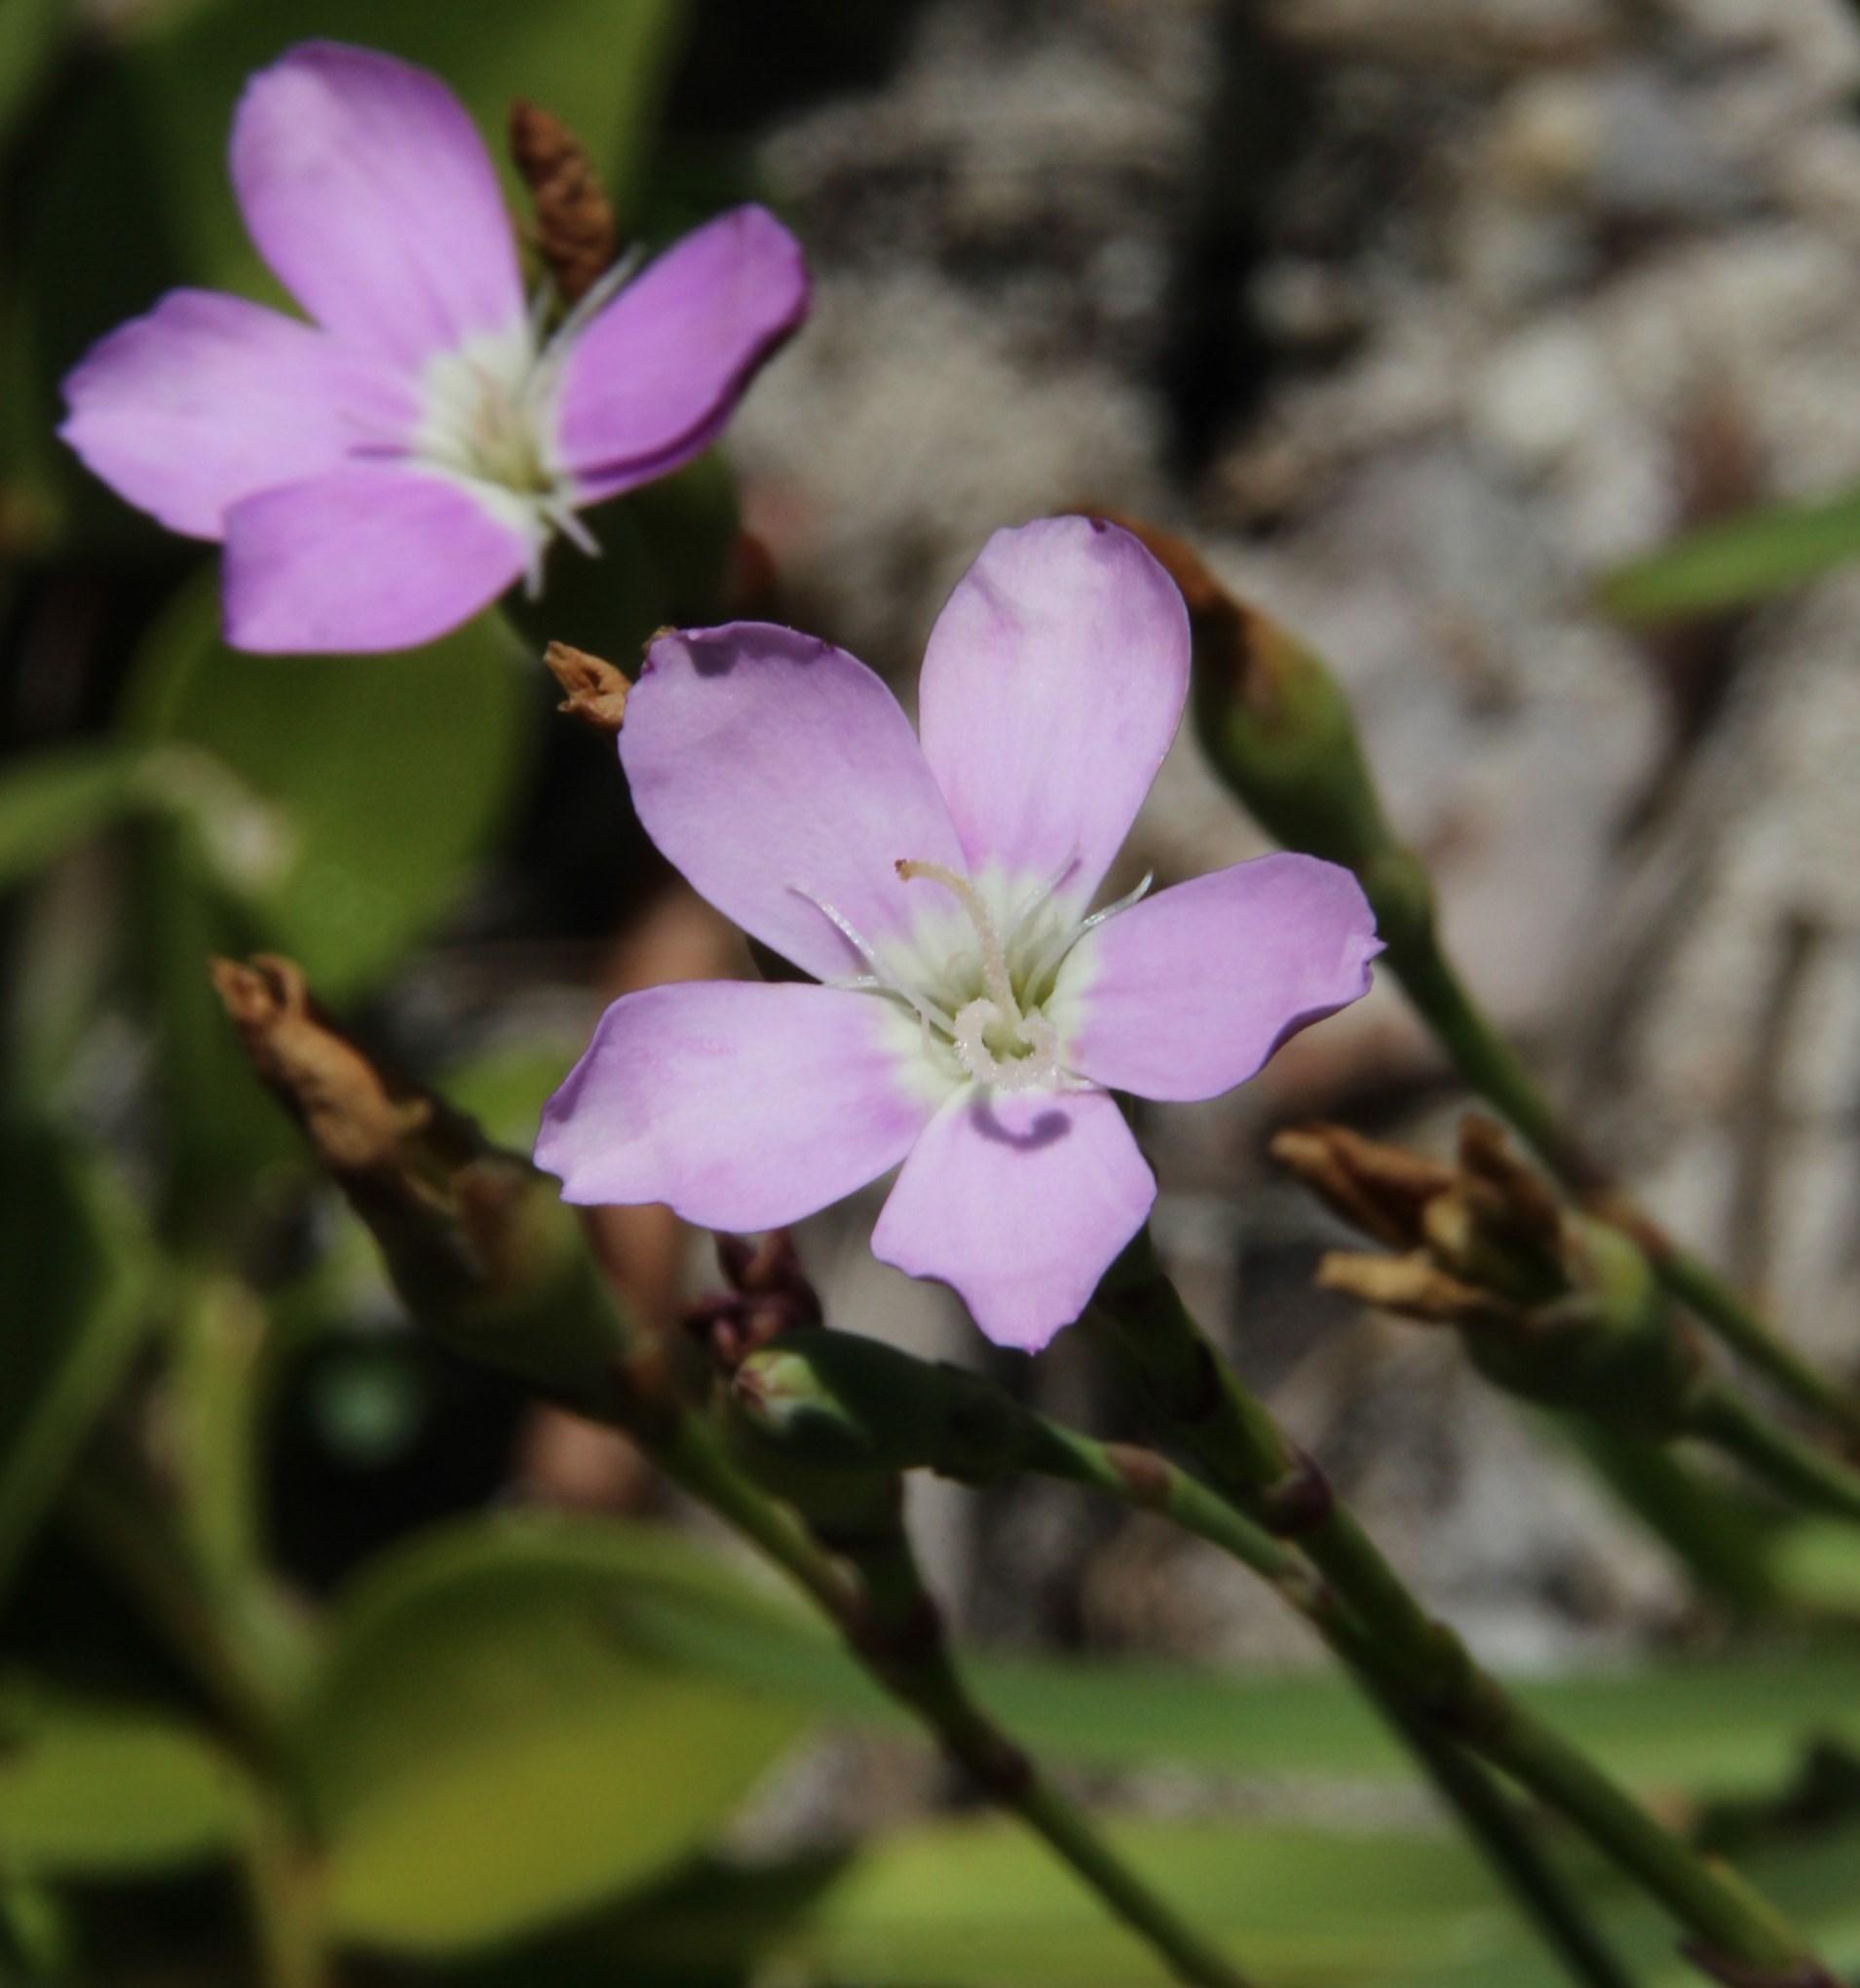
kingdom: Plantae
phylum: Tracheophyta
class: Magnoliopsida
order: Caryophyllales
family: Caryophyllaceae
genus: Dianthus
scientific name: Dianthus albens
